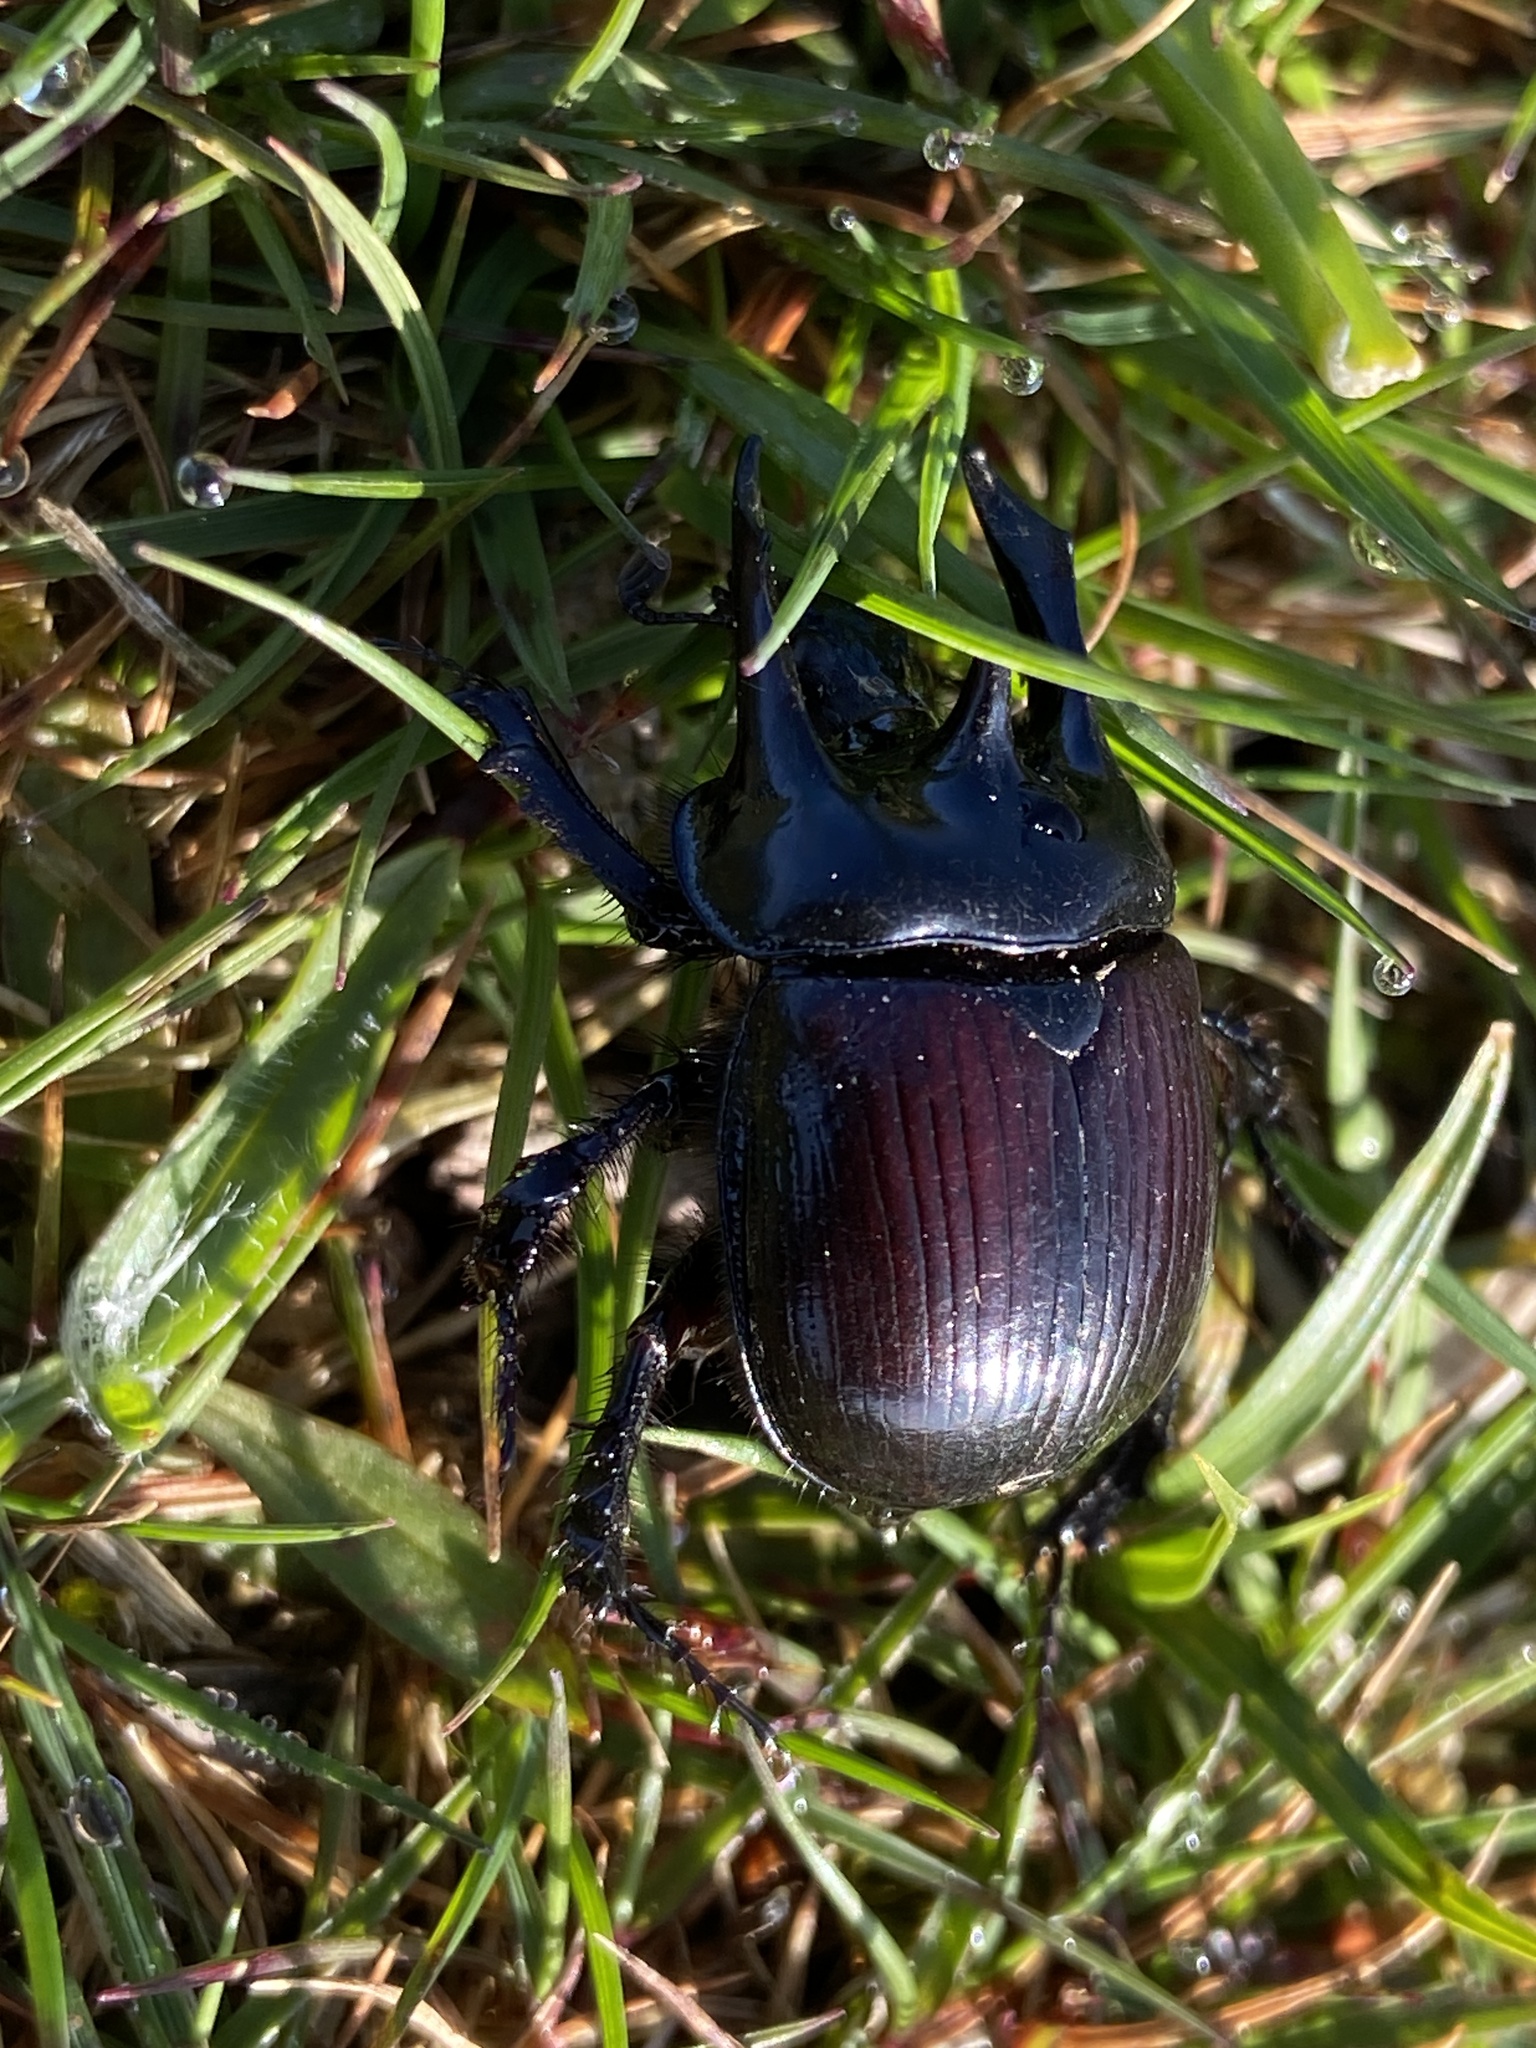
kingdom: Animalia
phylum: Arthropoda
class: Insecta
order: Coleoptera
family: Geotrupidae
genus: Typhaeus
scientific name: Typhaeus typhoeus
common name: Minotaur beetle
